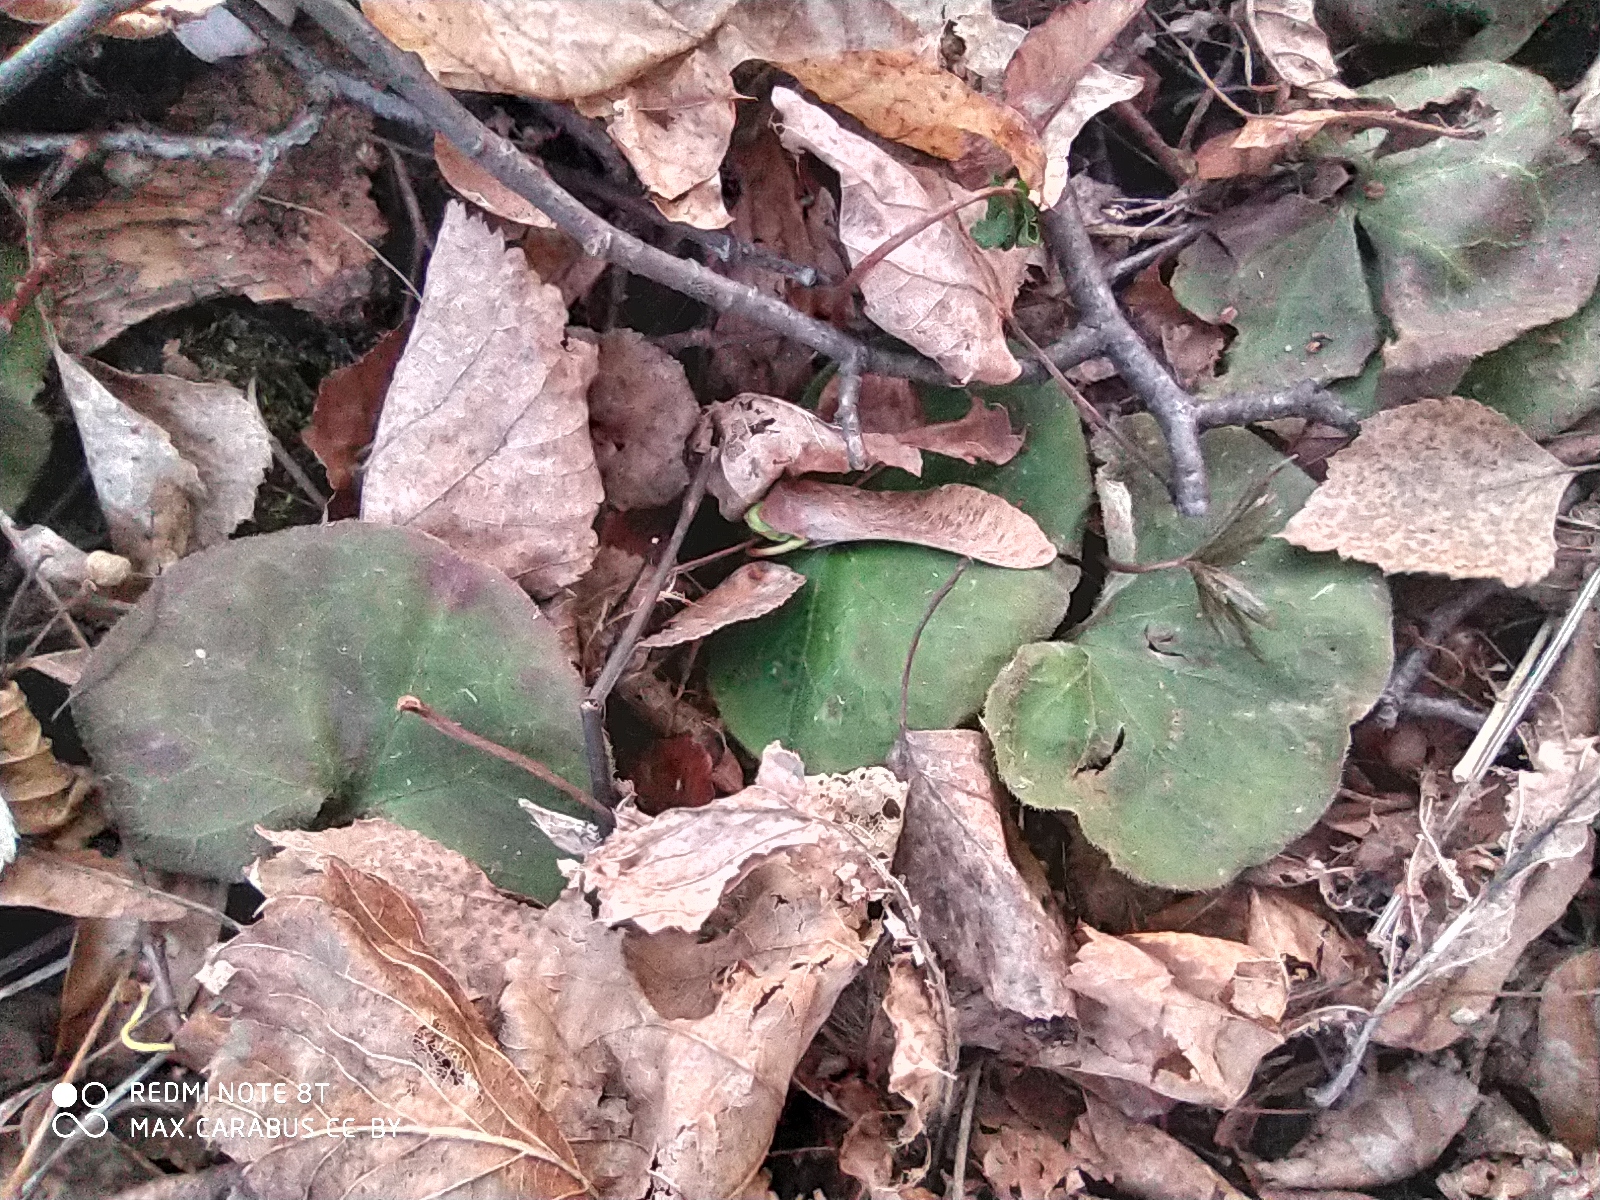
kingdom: Plantae
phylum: Tracheophyta
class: Magnoliopsida
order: Piperales
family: Aristolochiaceae
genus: Asarum
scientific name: Asarum europaeum
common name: Asarabacca
